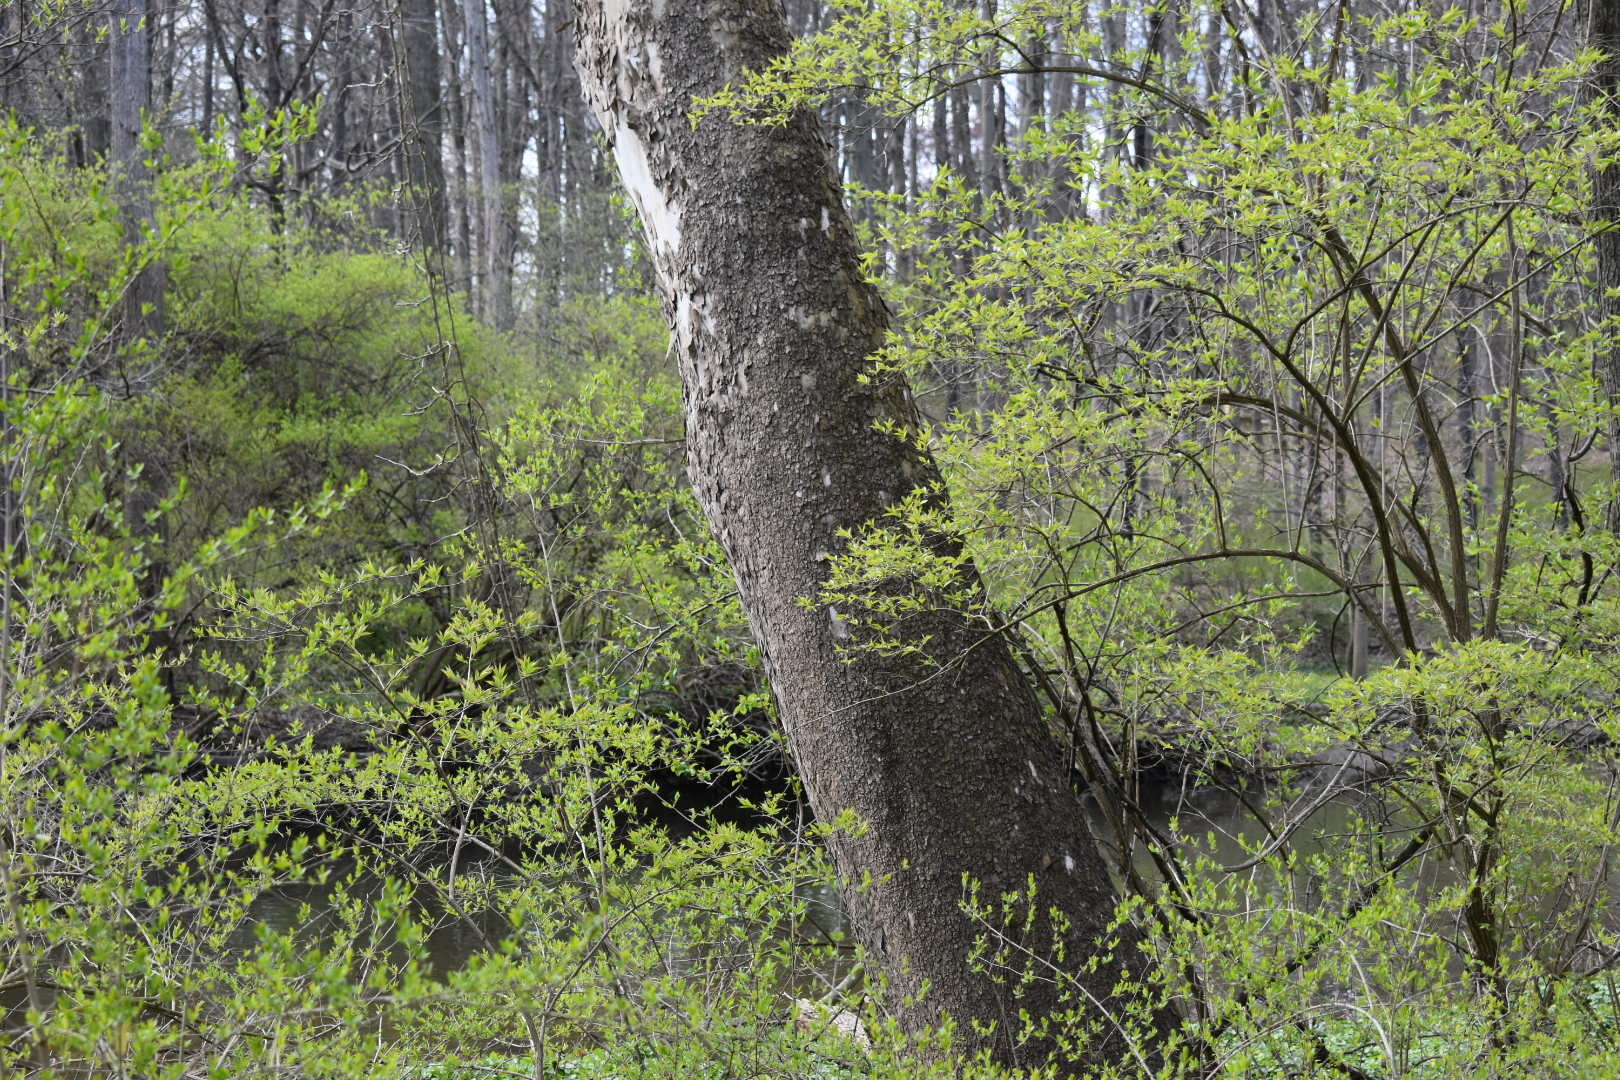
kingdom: Plantae
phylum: Tracheophyta
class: Magnoliopsida
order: Proteales
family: Platanaceae
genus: Platanus
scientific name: Platanus occidentalis
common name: American sycamore
